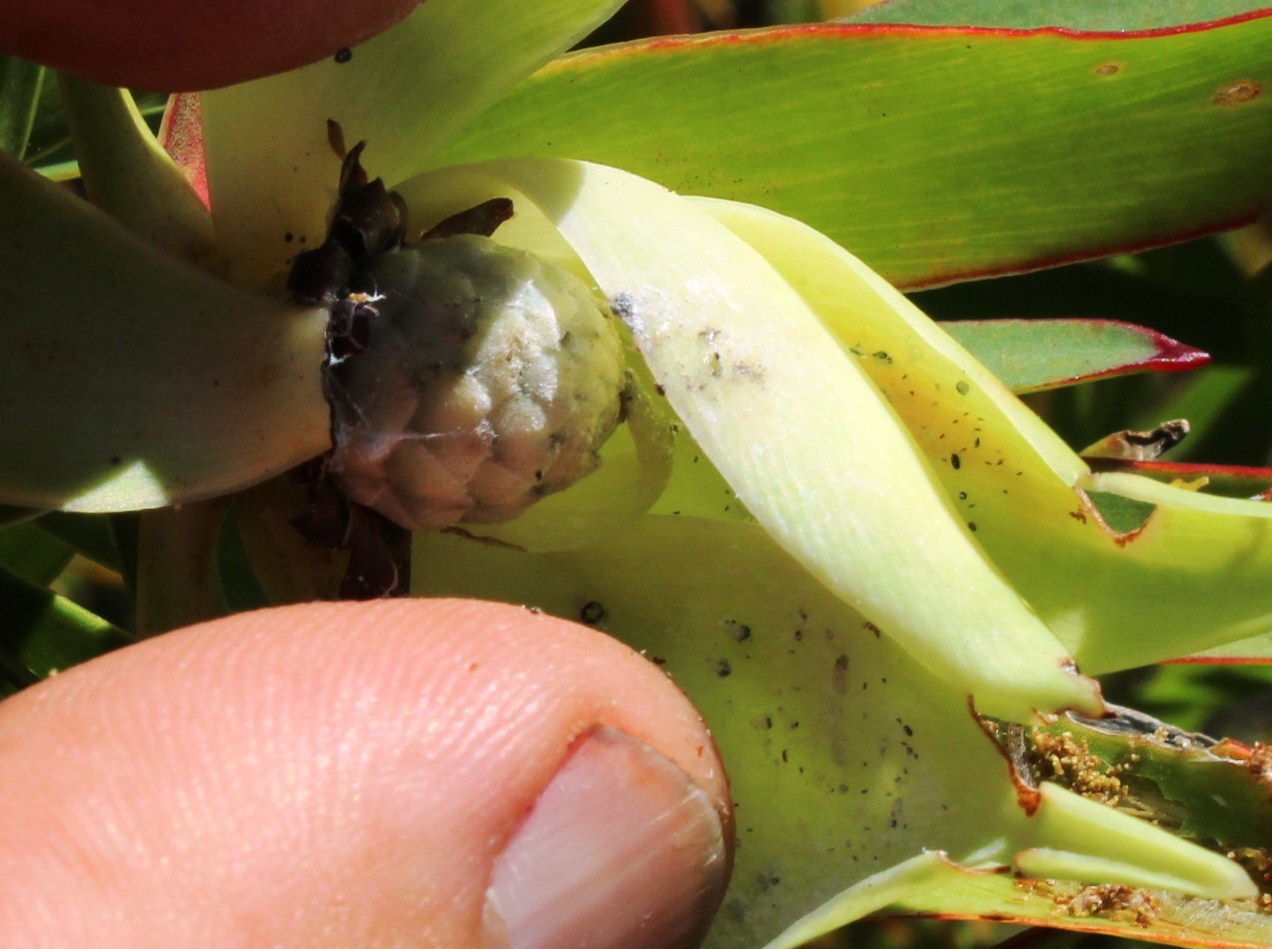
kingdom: Plantae
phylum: Tracheophyta
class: Magnoliopsida
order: Proteales
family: Proteaceae
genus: Leucadendron
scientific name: Leucadendron salignum
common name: Common sunshine conebush
